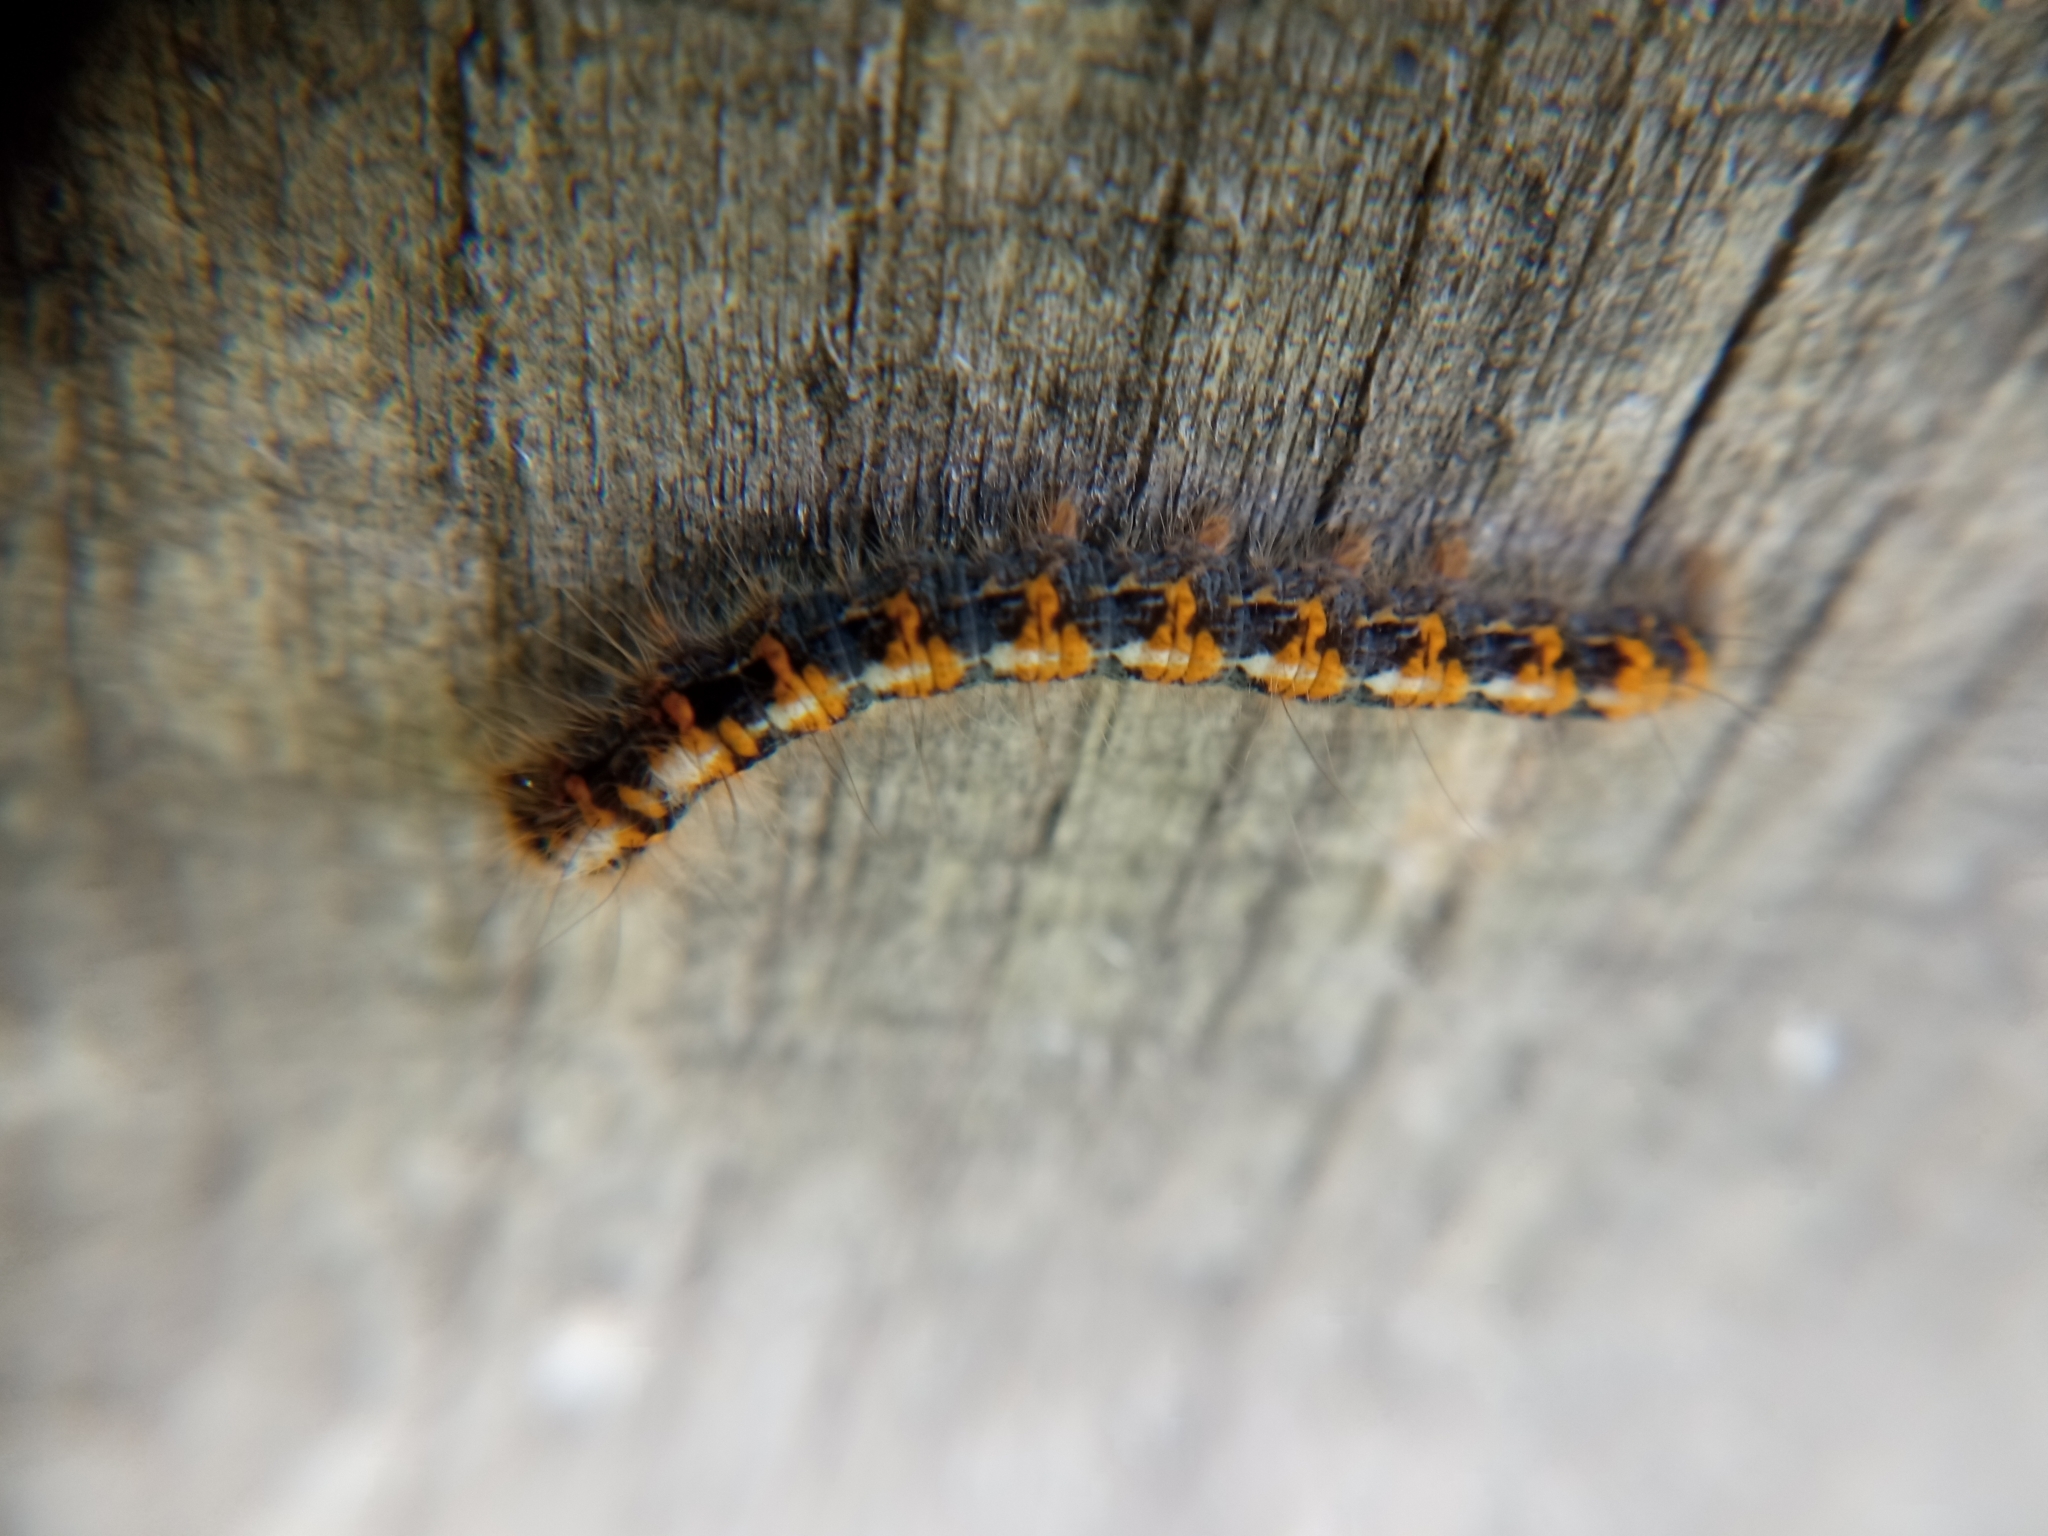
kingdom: Animalia
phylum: Arthropoda
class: Insecta
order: Lepidoptera
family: Lasiocampidae
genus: Lasiocampa
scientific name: Lasiocampa quercus
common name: Oak eggar
